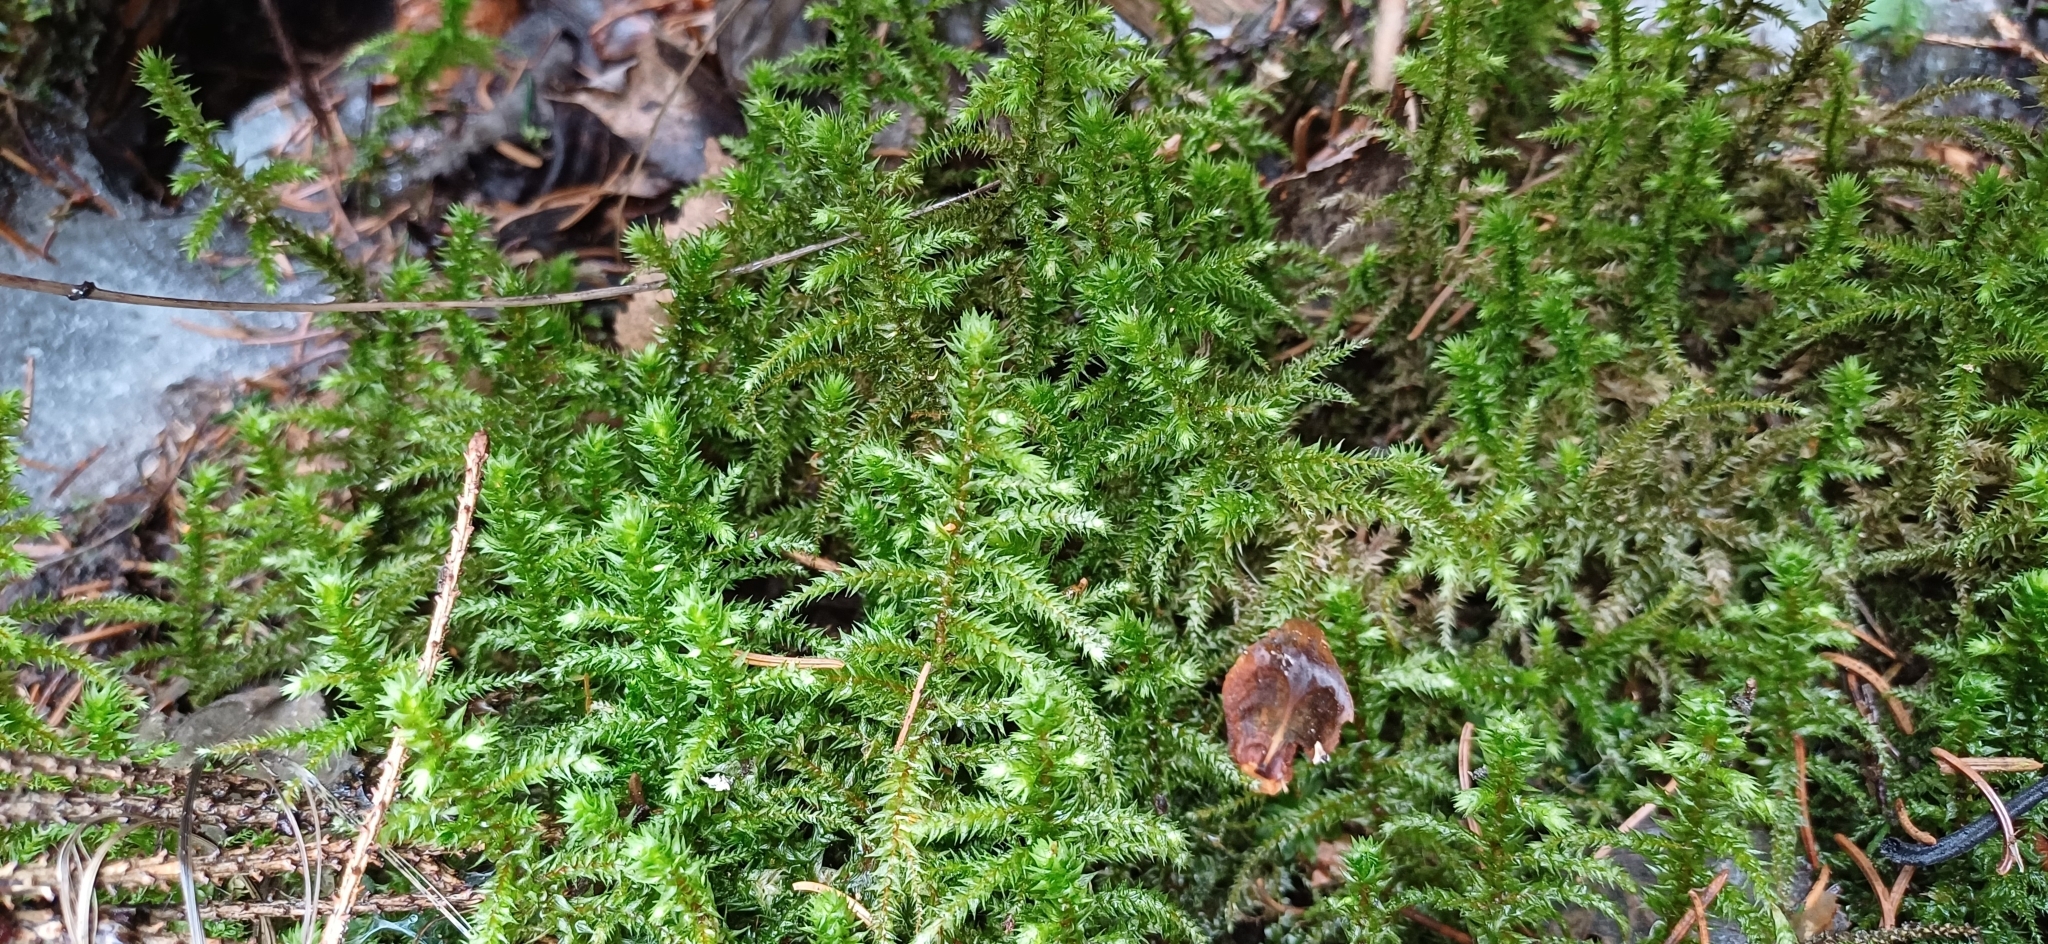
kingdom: Plantae
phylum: Bryophyta
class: Bryopsida
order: Hypnales
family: Hylocomiaceae
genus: Hylocomiadelphus
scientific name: Hylocomiadelphus triquetrus
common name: Rough goose neck moss
